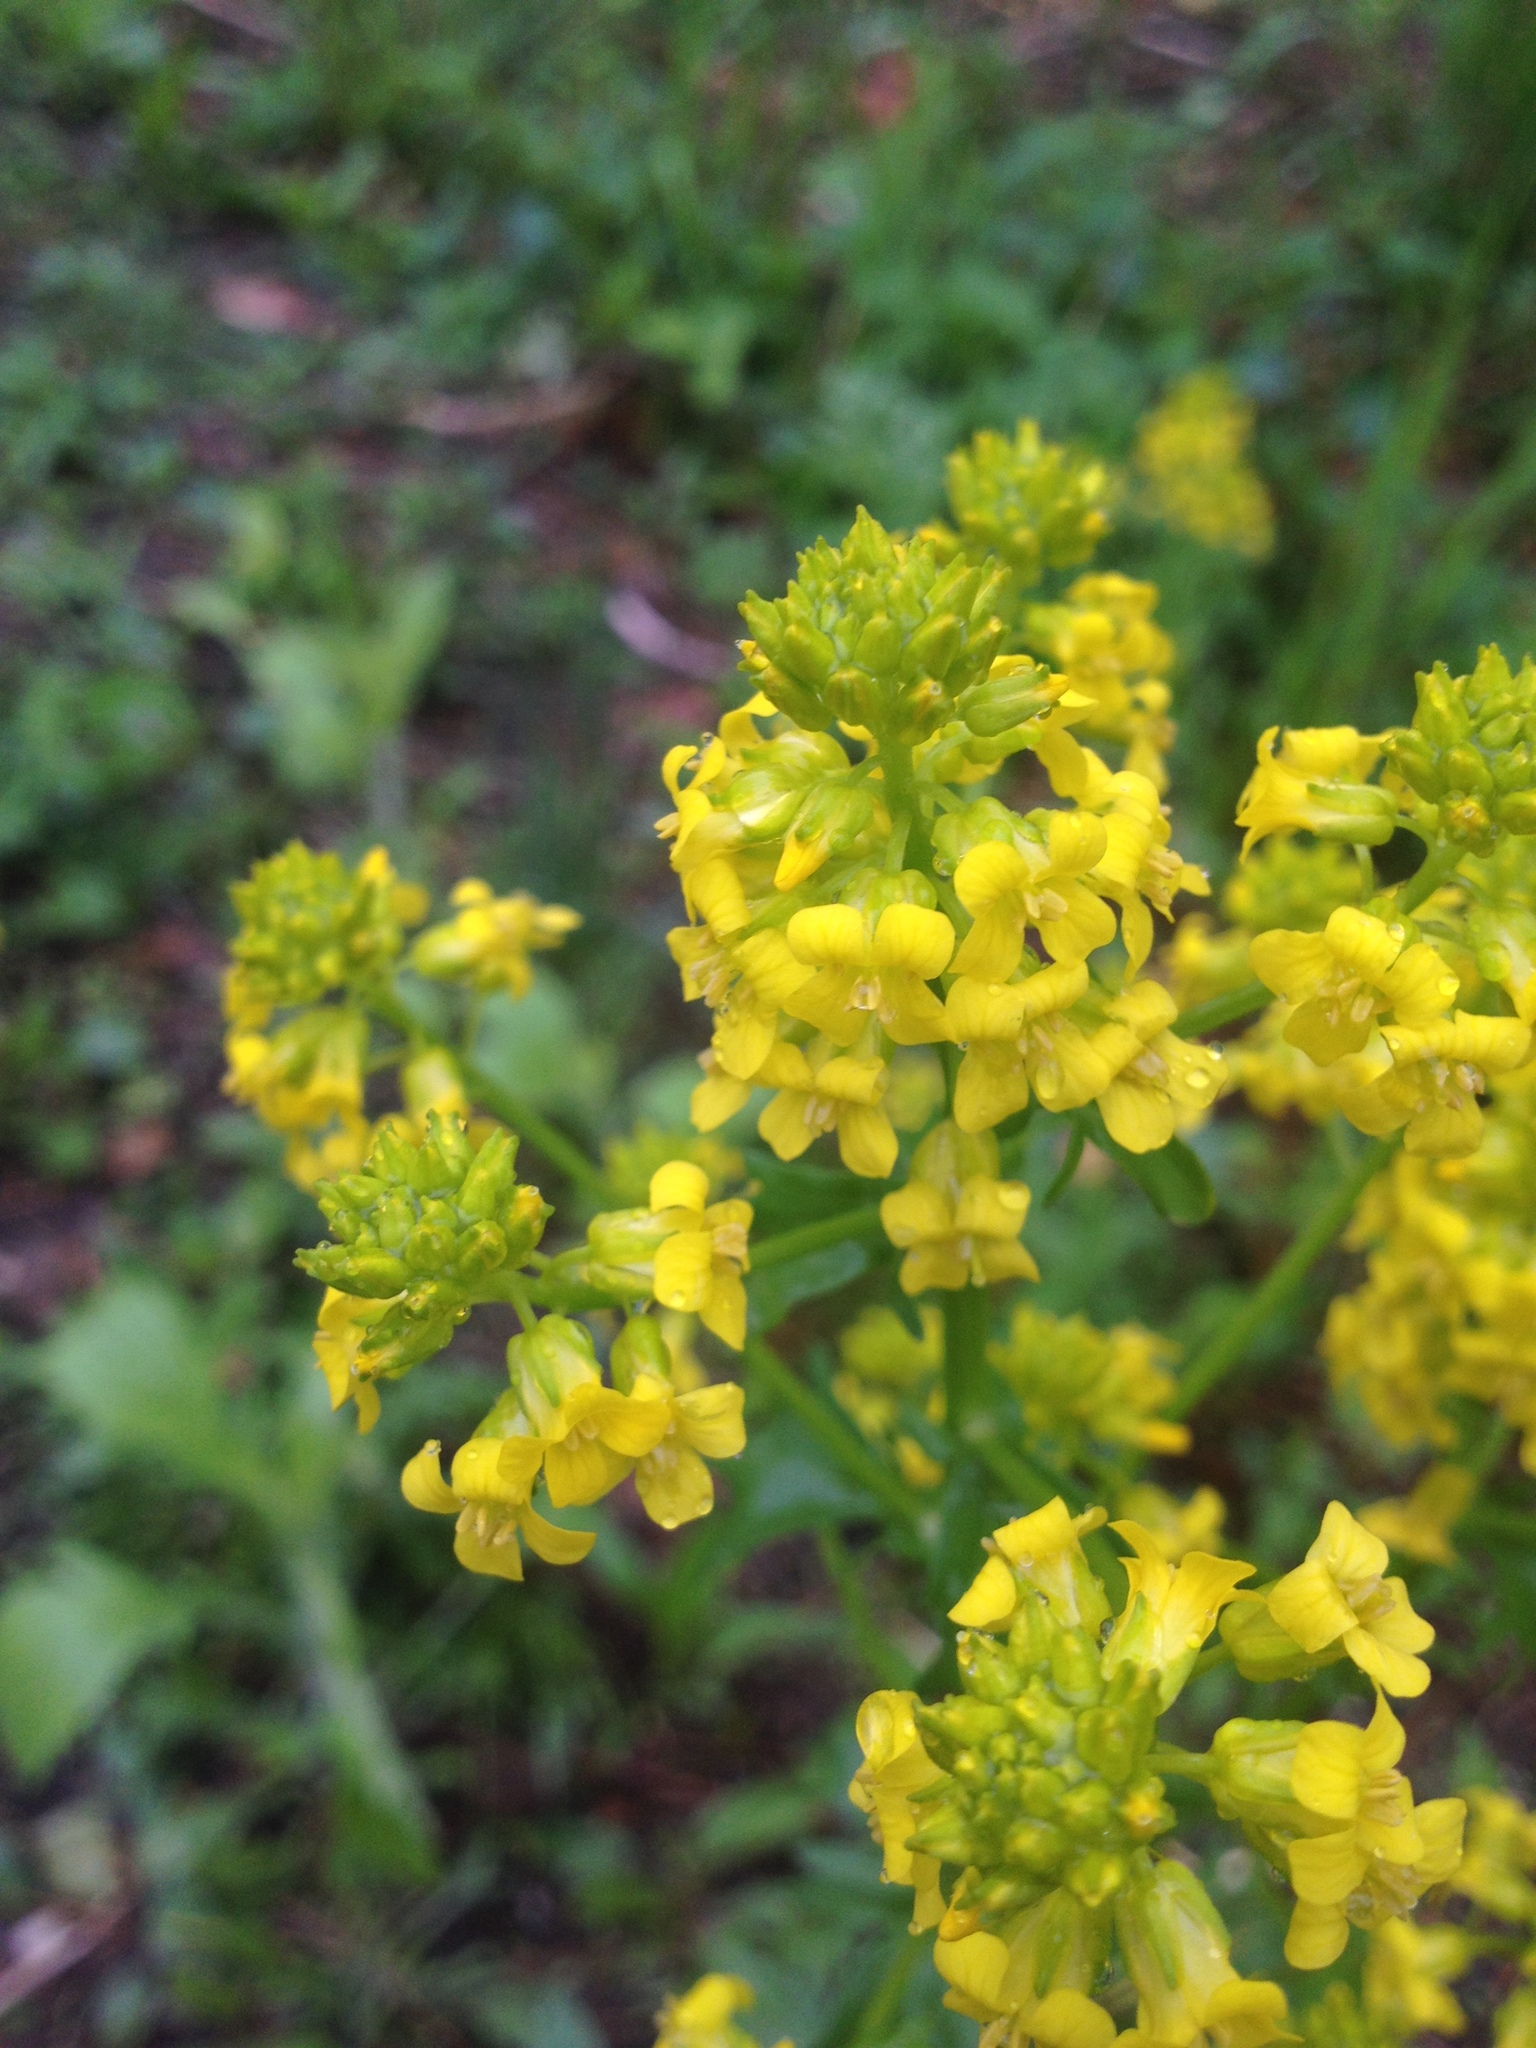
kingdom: Plantae
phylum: Tracheophyta
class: Magnoliopsida
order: Brassicales
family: Brassicaceae
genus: Barbarea
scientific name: Barbarea vulgaris
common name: Cressy-greens
